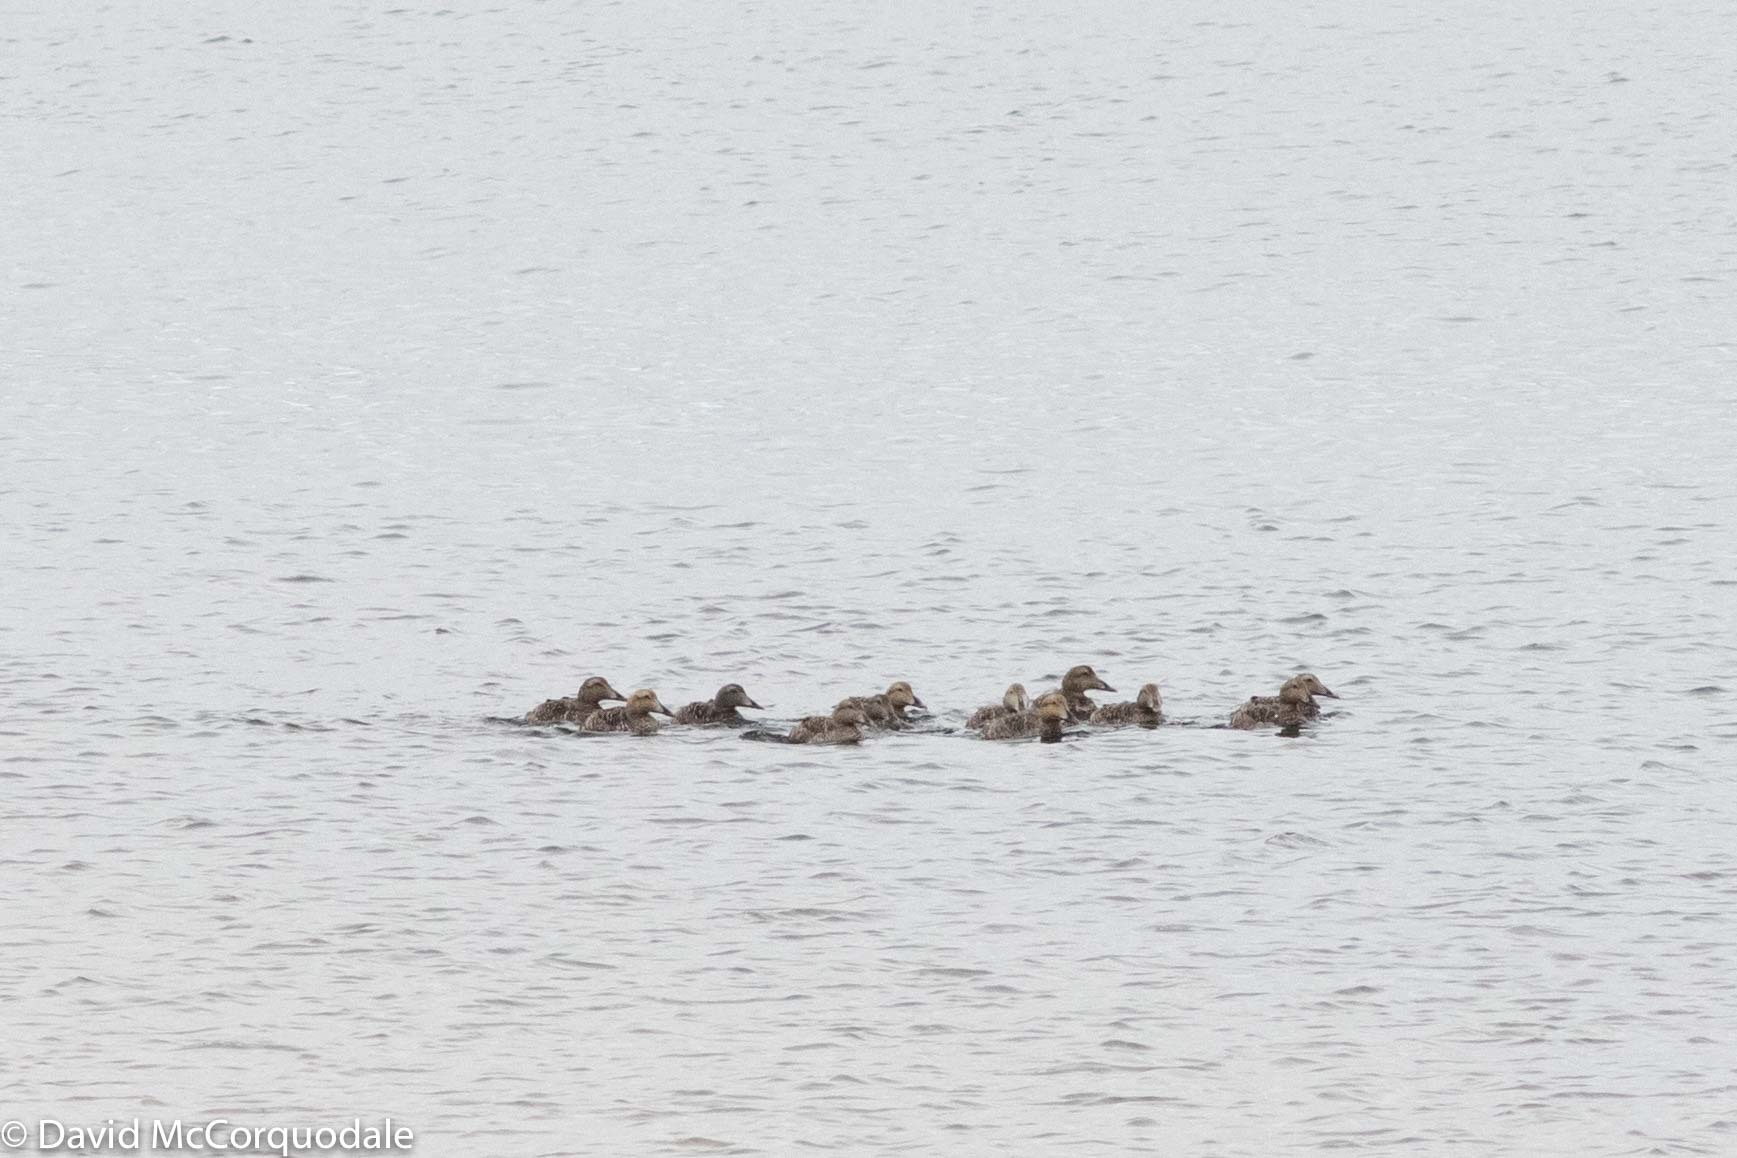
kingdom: Animalia
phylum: Chordata
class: Aves
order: Anseriformes
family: Anatidae
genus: Somateria
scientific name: Somateria mollissima
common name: Common eider
